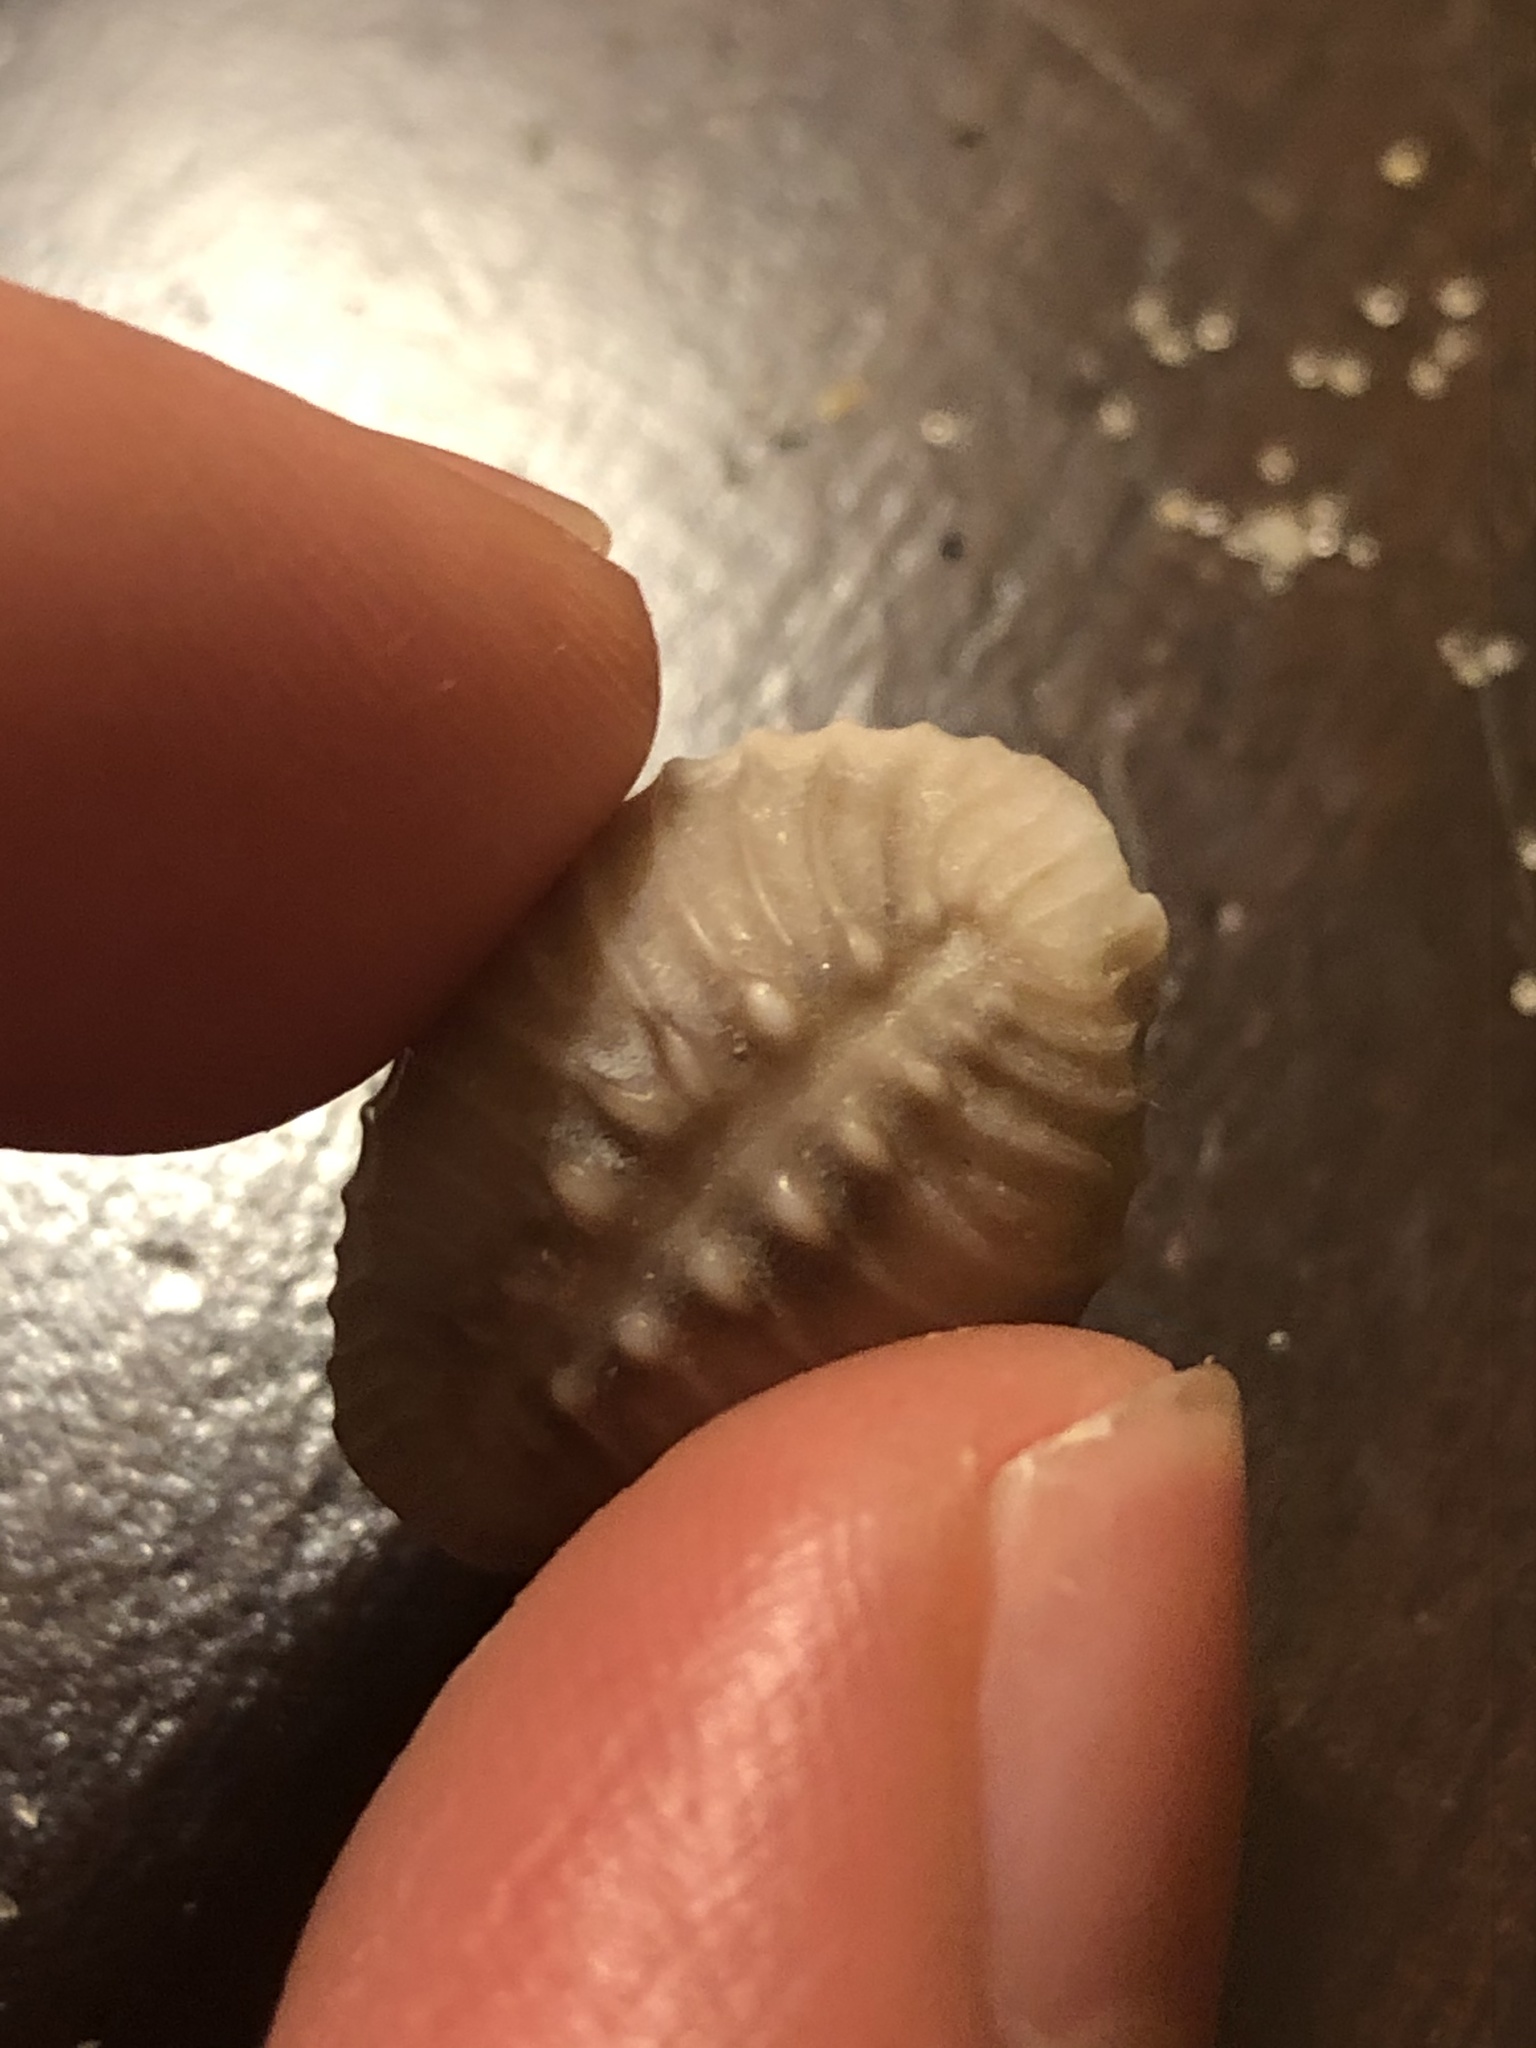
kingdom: Animalia
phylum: Mollusca
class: Gastropoda
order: Littorinimorpha
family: Triviidae
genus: Pusula
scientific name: Pusula solandri
